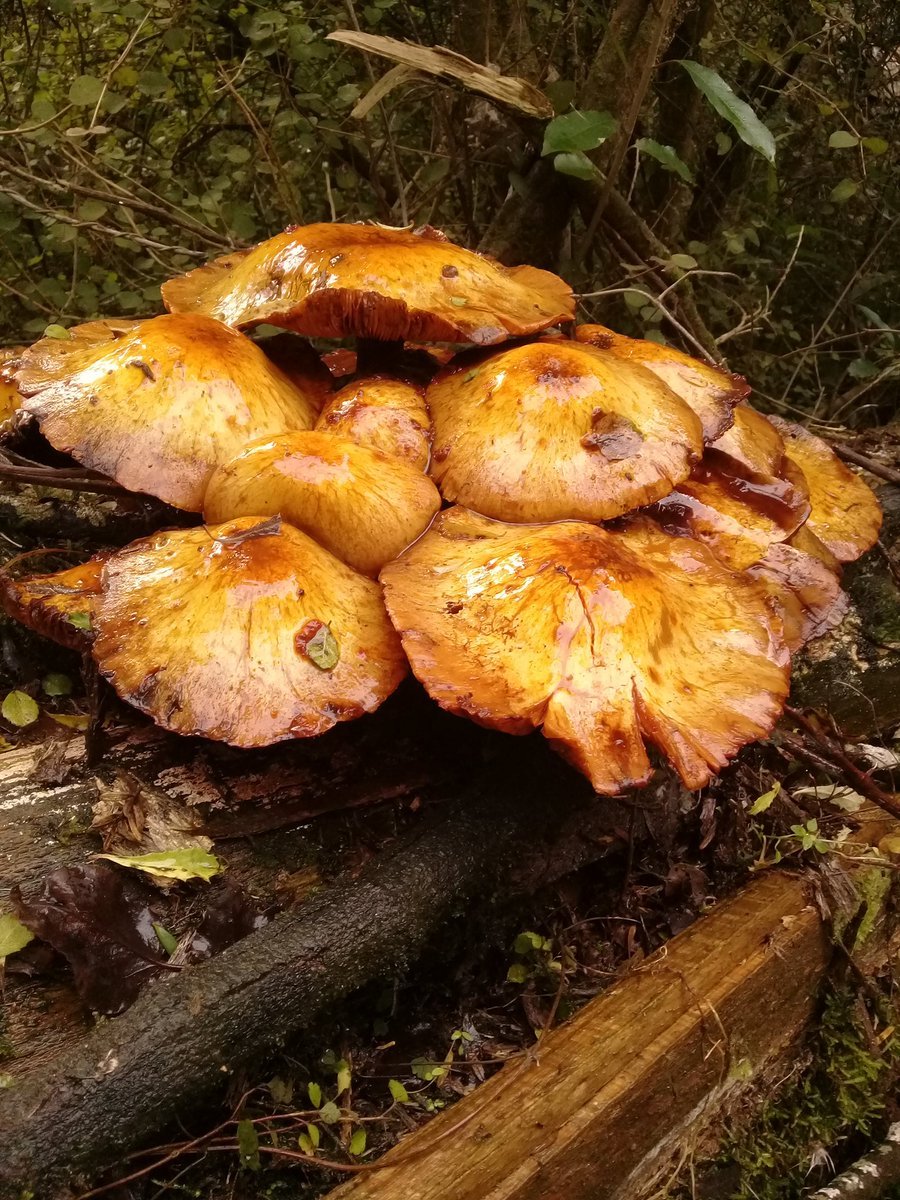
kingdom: Fungi
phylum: Basidiomycota
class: Agaricomycetes
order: Agaricales
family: Hymenogastraceae
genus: Gymnopilus
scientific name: Gymnopilus junonius
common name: Spectacular rustgill
